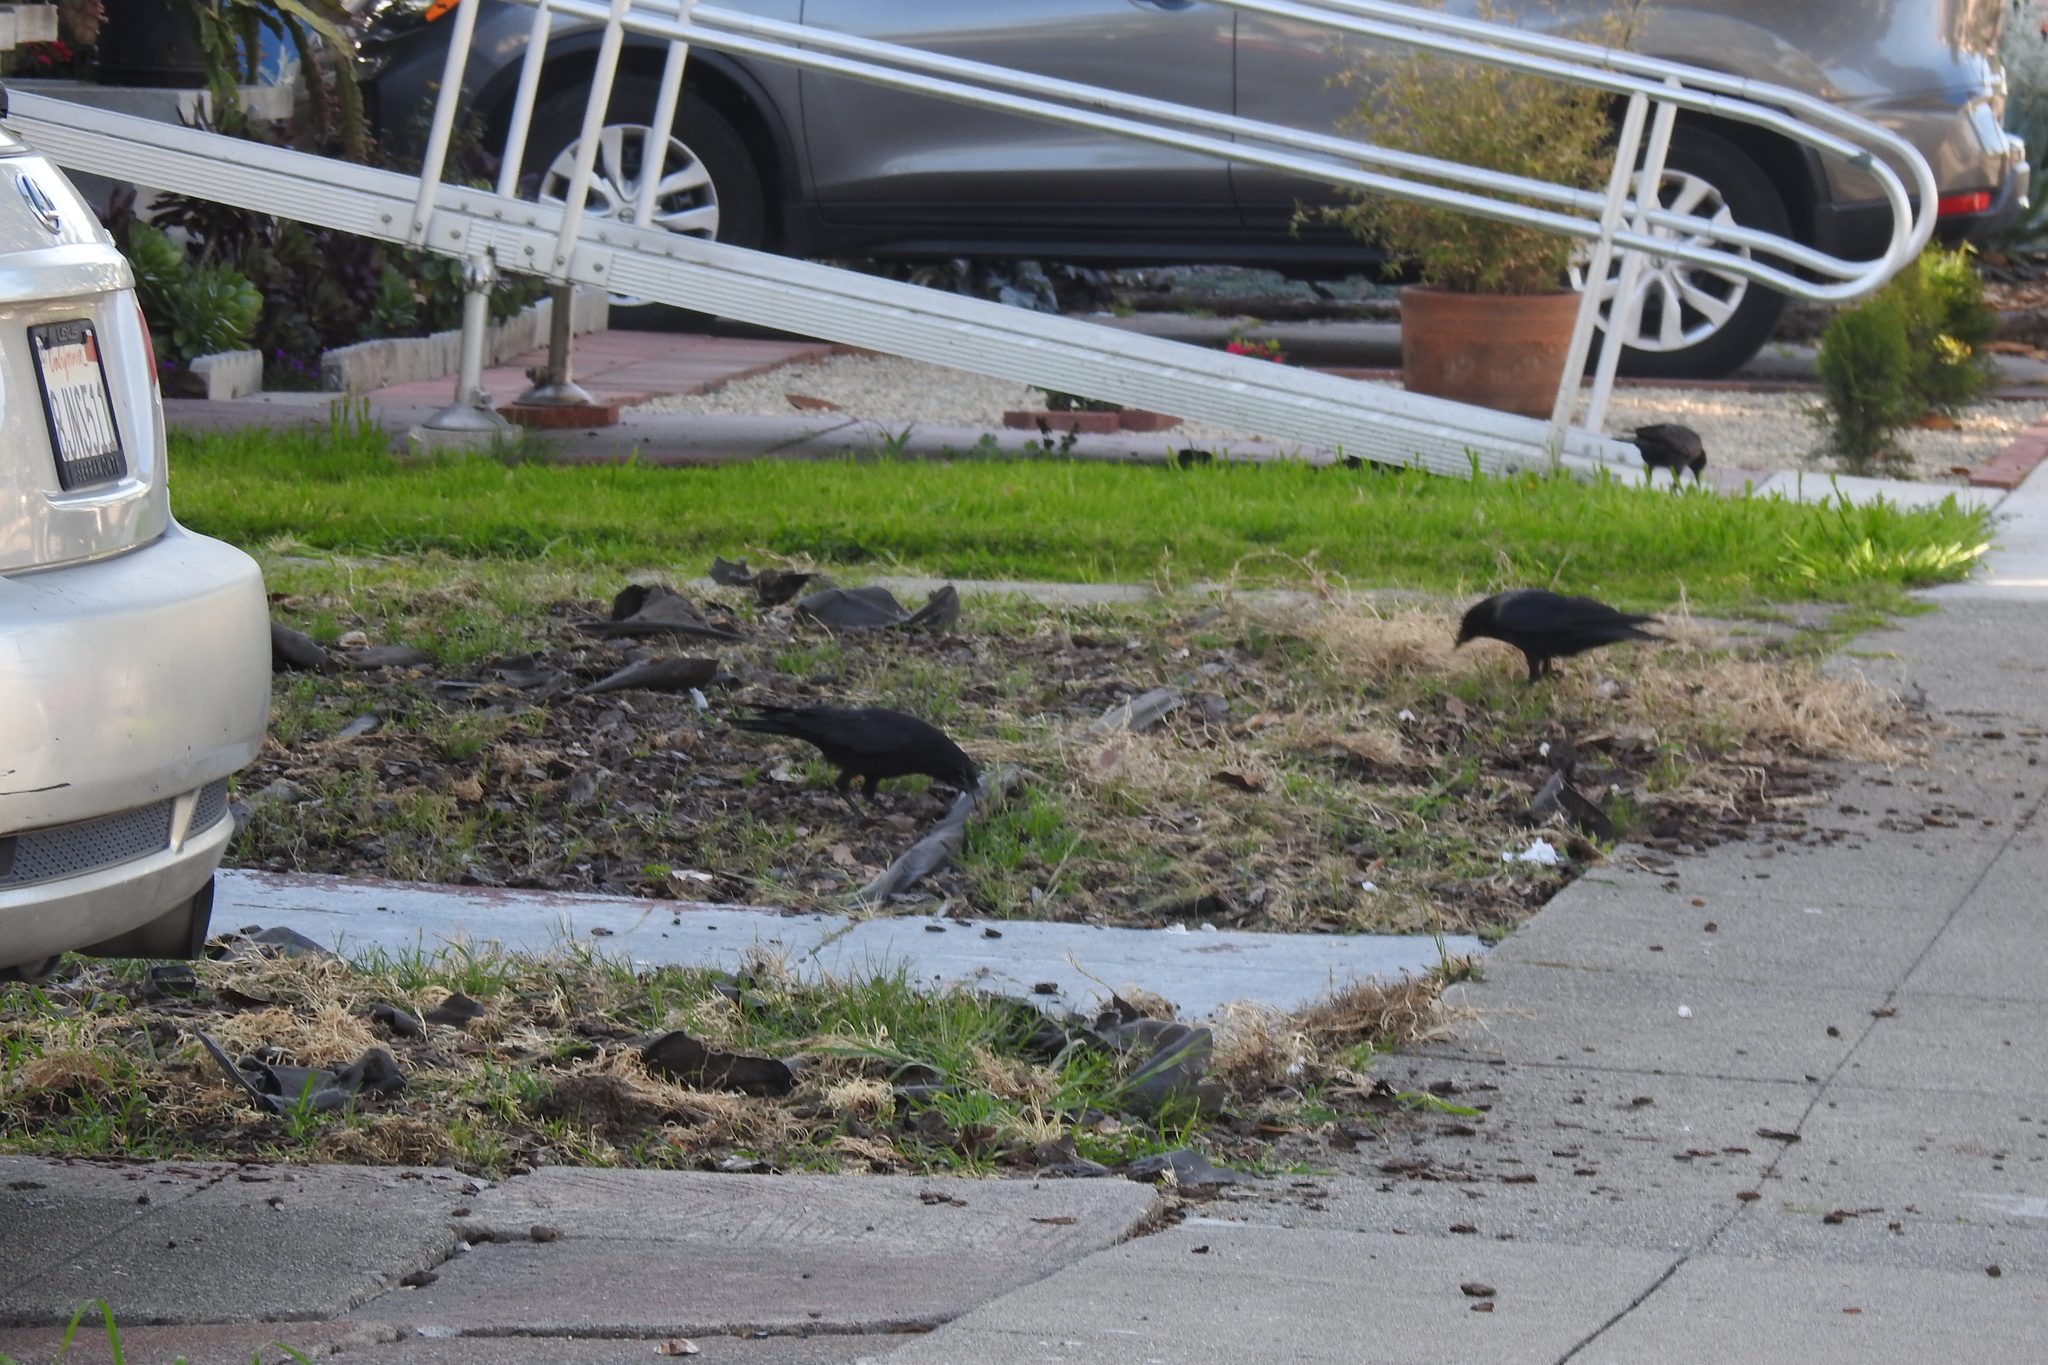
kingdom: Animalia
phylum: Chordata
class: Aves
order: Passeriformes
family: Corvidae
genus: Corvus
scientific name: Corvus brachyrhynchos
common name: American crow
